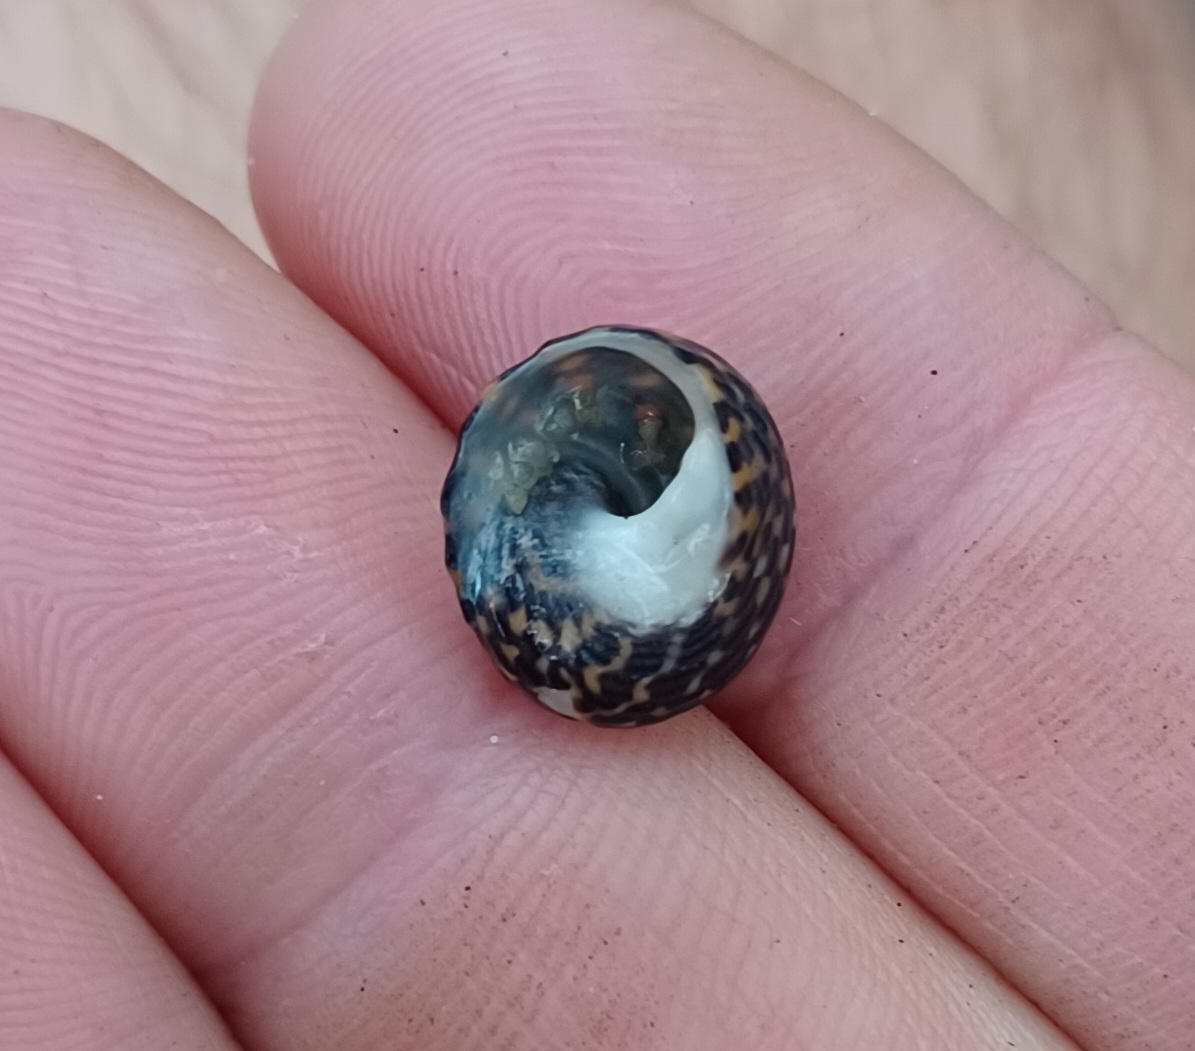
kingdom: Animalia
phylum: Mollusca
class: Gastropoda
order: Trochida
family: Trochidae
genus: Diloma
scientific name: Diloma concameratum
